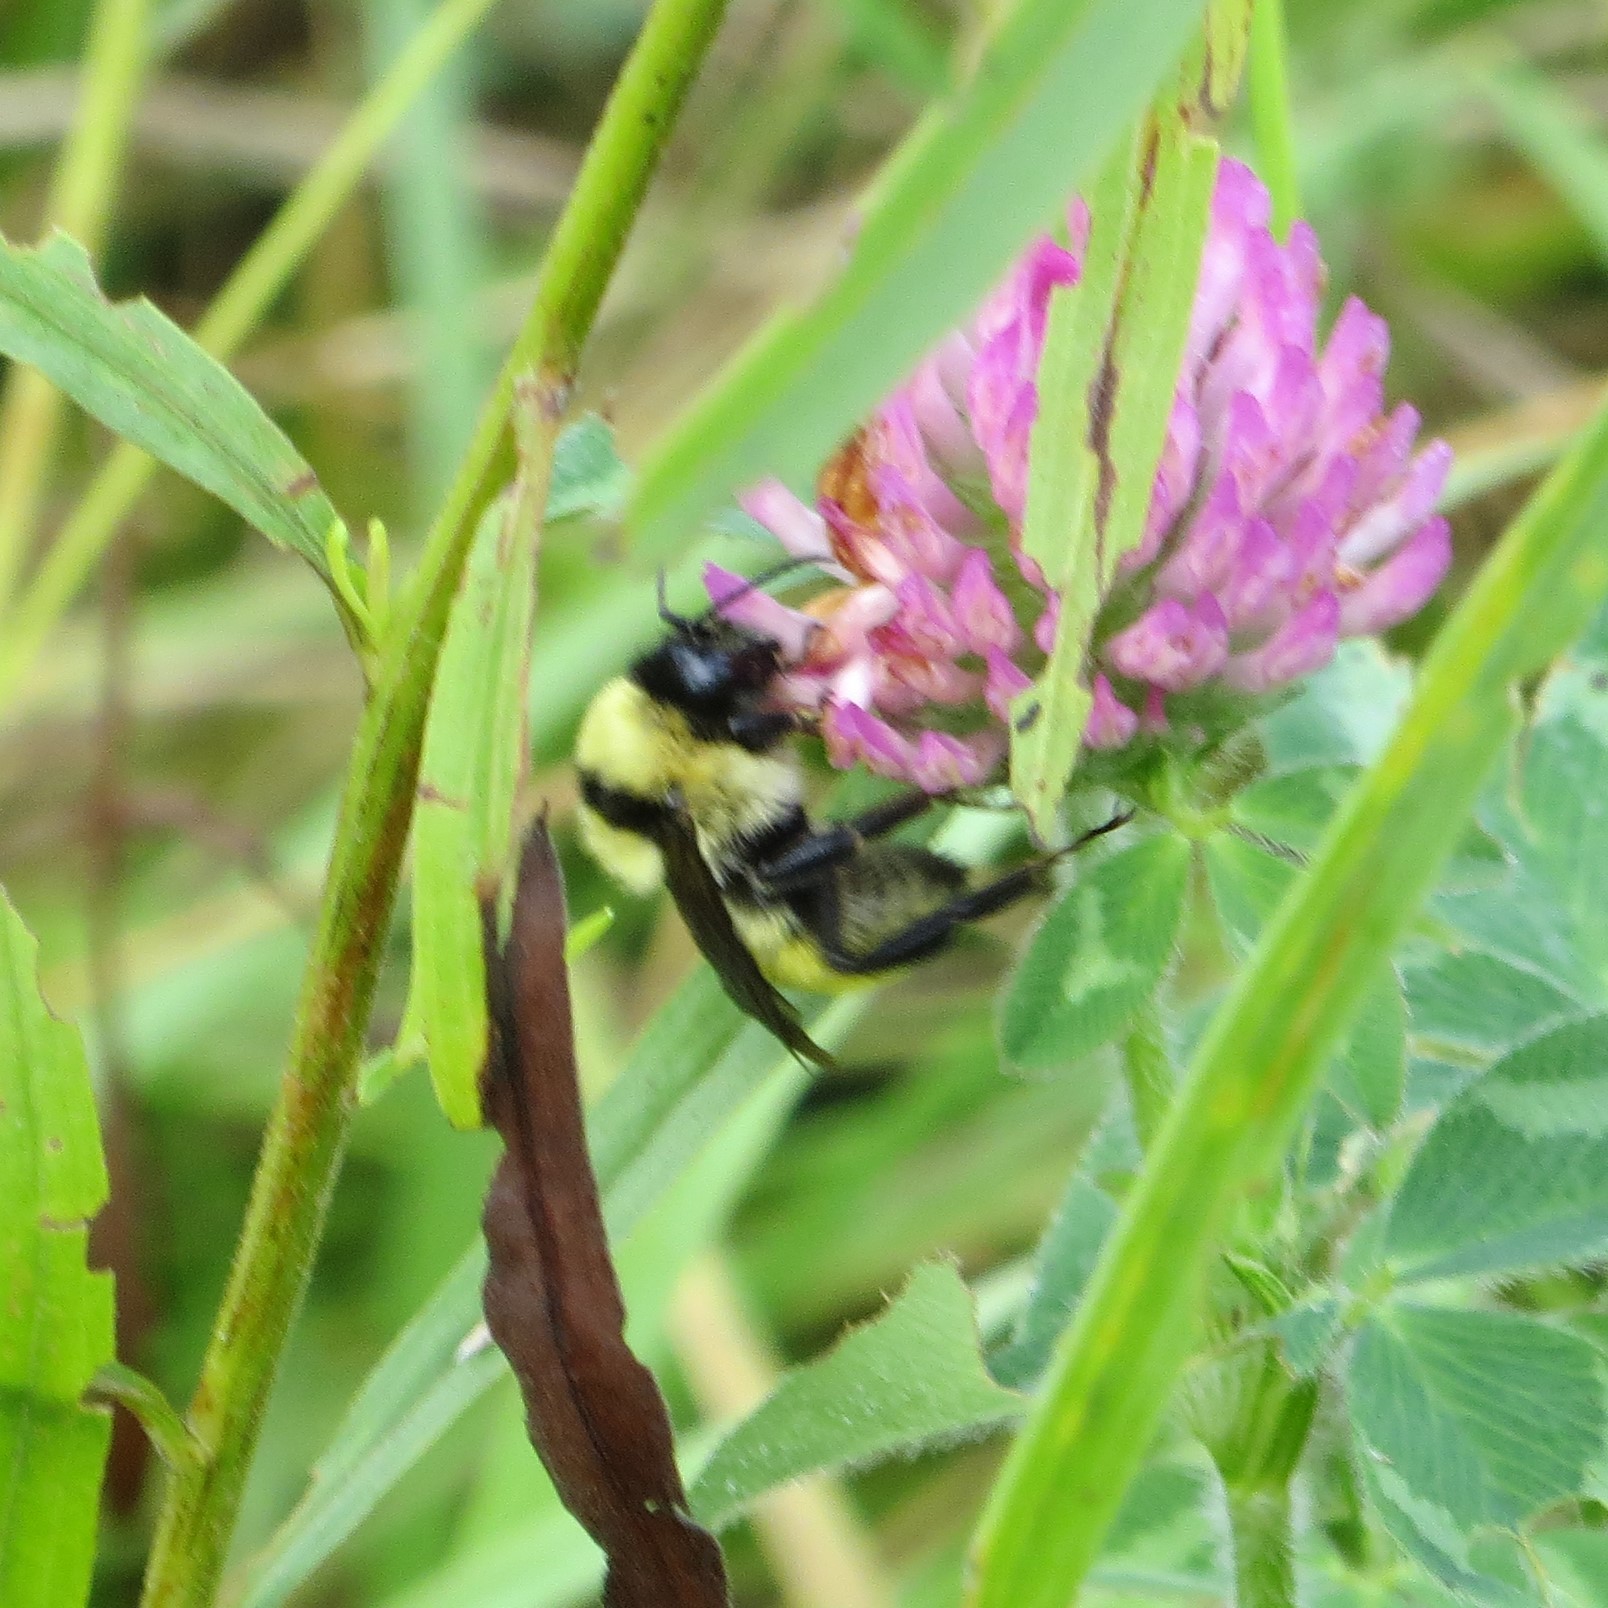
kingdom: Animalia
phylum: Arthropoda
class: Insecta
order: Hymenoptera
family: Apidae
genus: Bombus
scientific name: Bombus fervidus
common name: Yellow bumble bee
